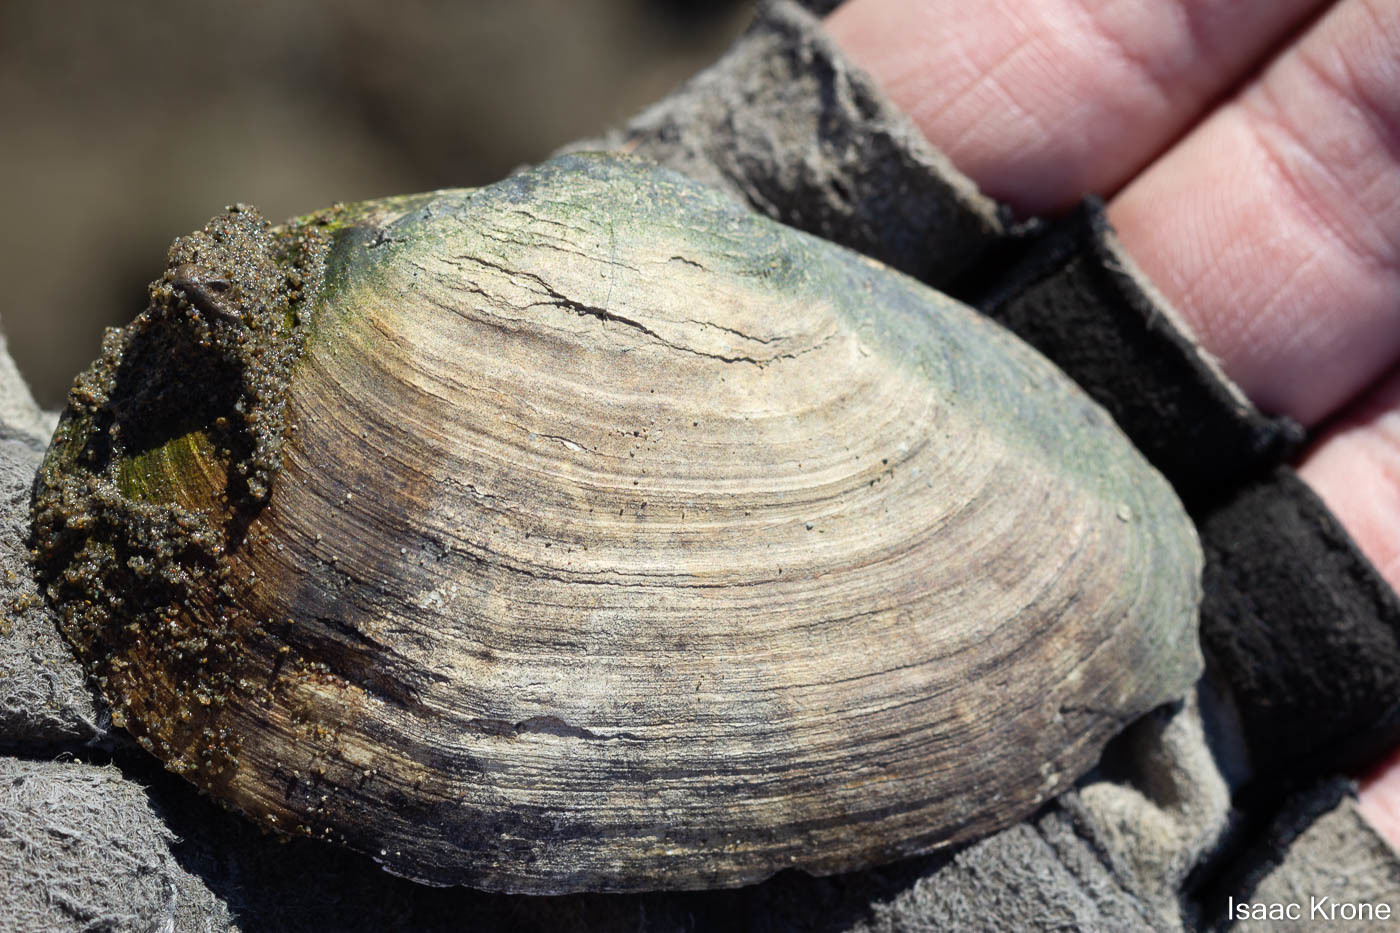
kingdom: Animalia
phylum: Mollusca
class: Bivalvia
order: Myida
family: Myidae
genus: Mya
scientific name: Mya arenaria
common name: Soft-shelled clam
